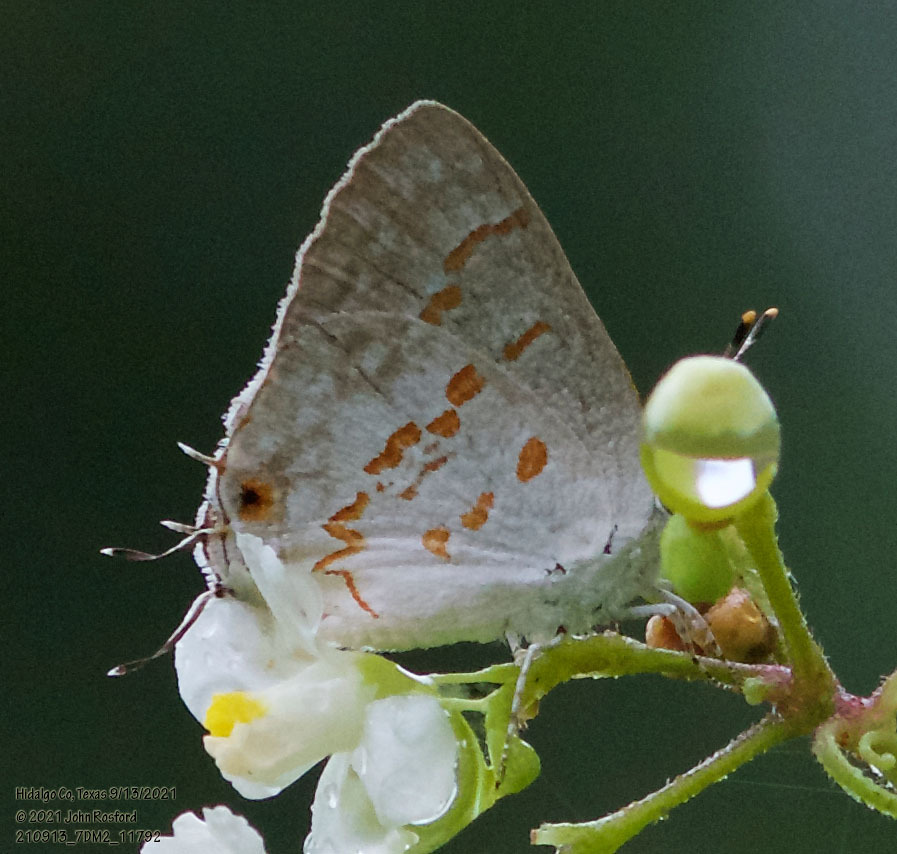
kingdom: Animalia
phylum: Arthropoda
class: Insecta
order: Lepidoptera
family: Lycaenidae
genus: Ministrymon
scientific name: Ministrymon clytie
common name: Clytie ministreak
